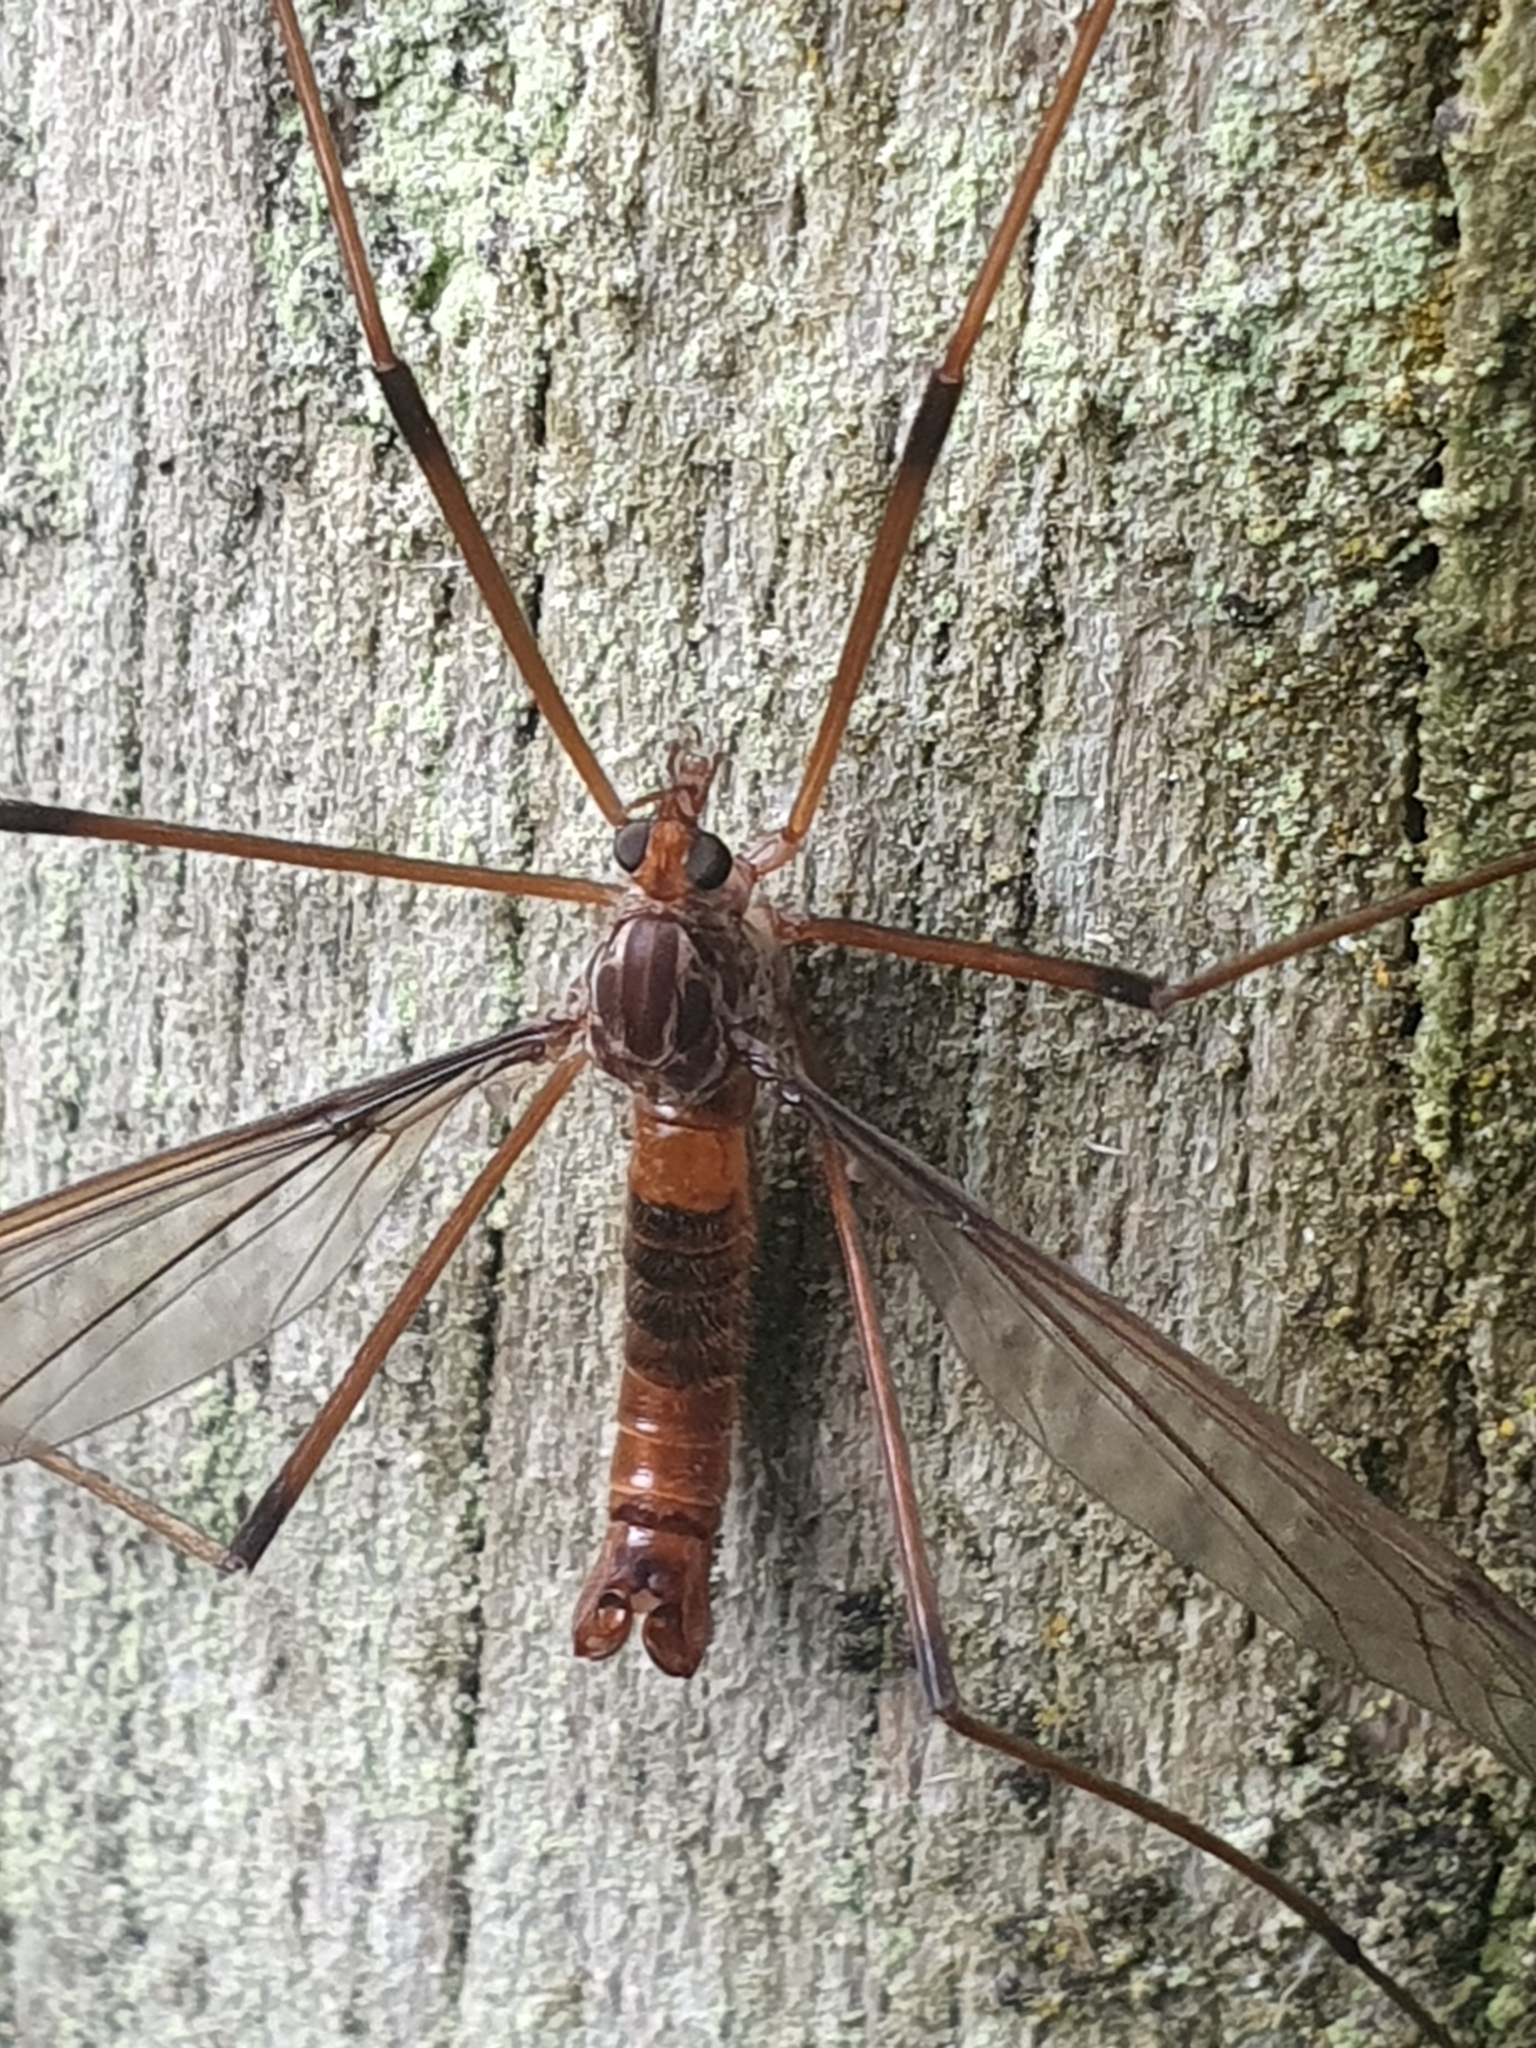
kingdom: Animalia
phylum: Arthropoda
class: Insecta
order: Diptera
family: Tipulidae
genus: Leptotarsus
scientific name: Leptotarsus heterogamus
